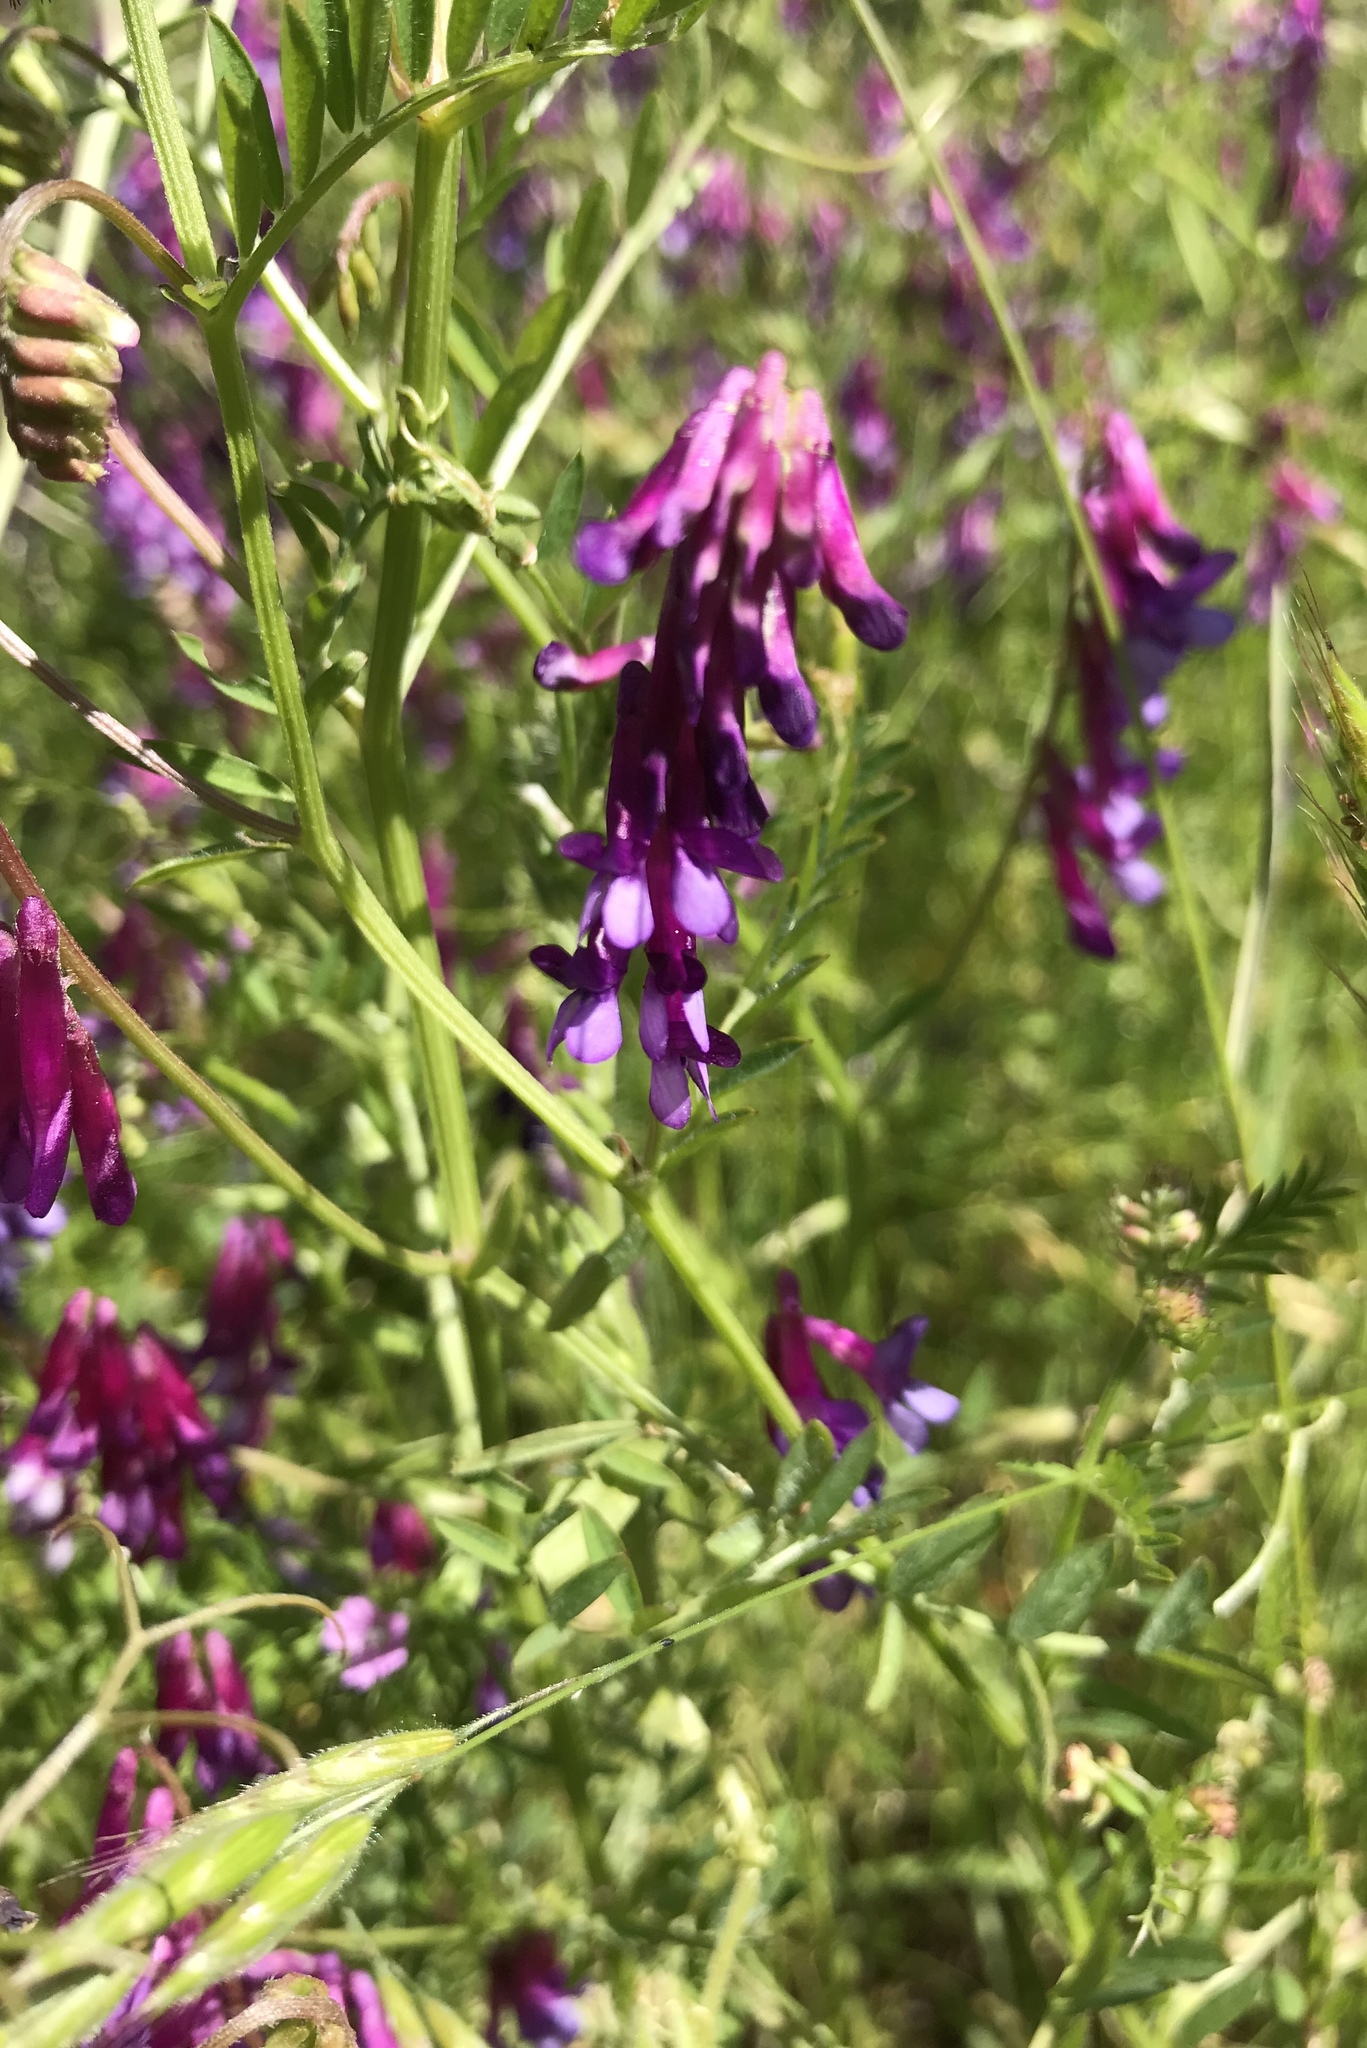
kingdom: Plantae
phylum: Tracheophyta
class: Magnoliopsida
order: Fabales
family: Fabaceae
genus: Vicia
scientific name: Vicia villosa
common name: Fodder vetch
